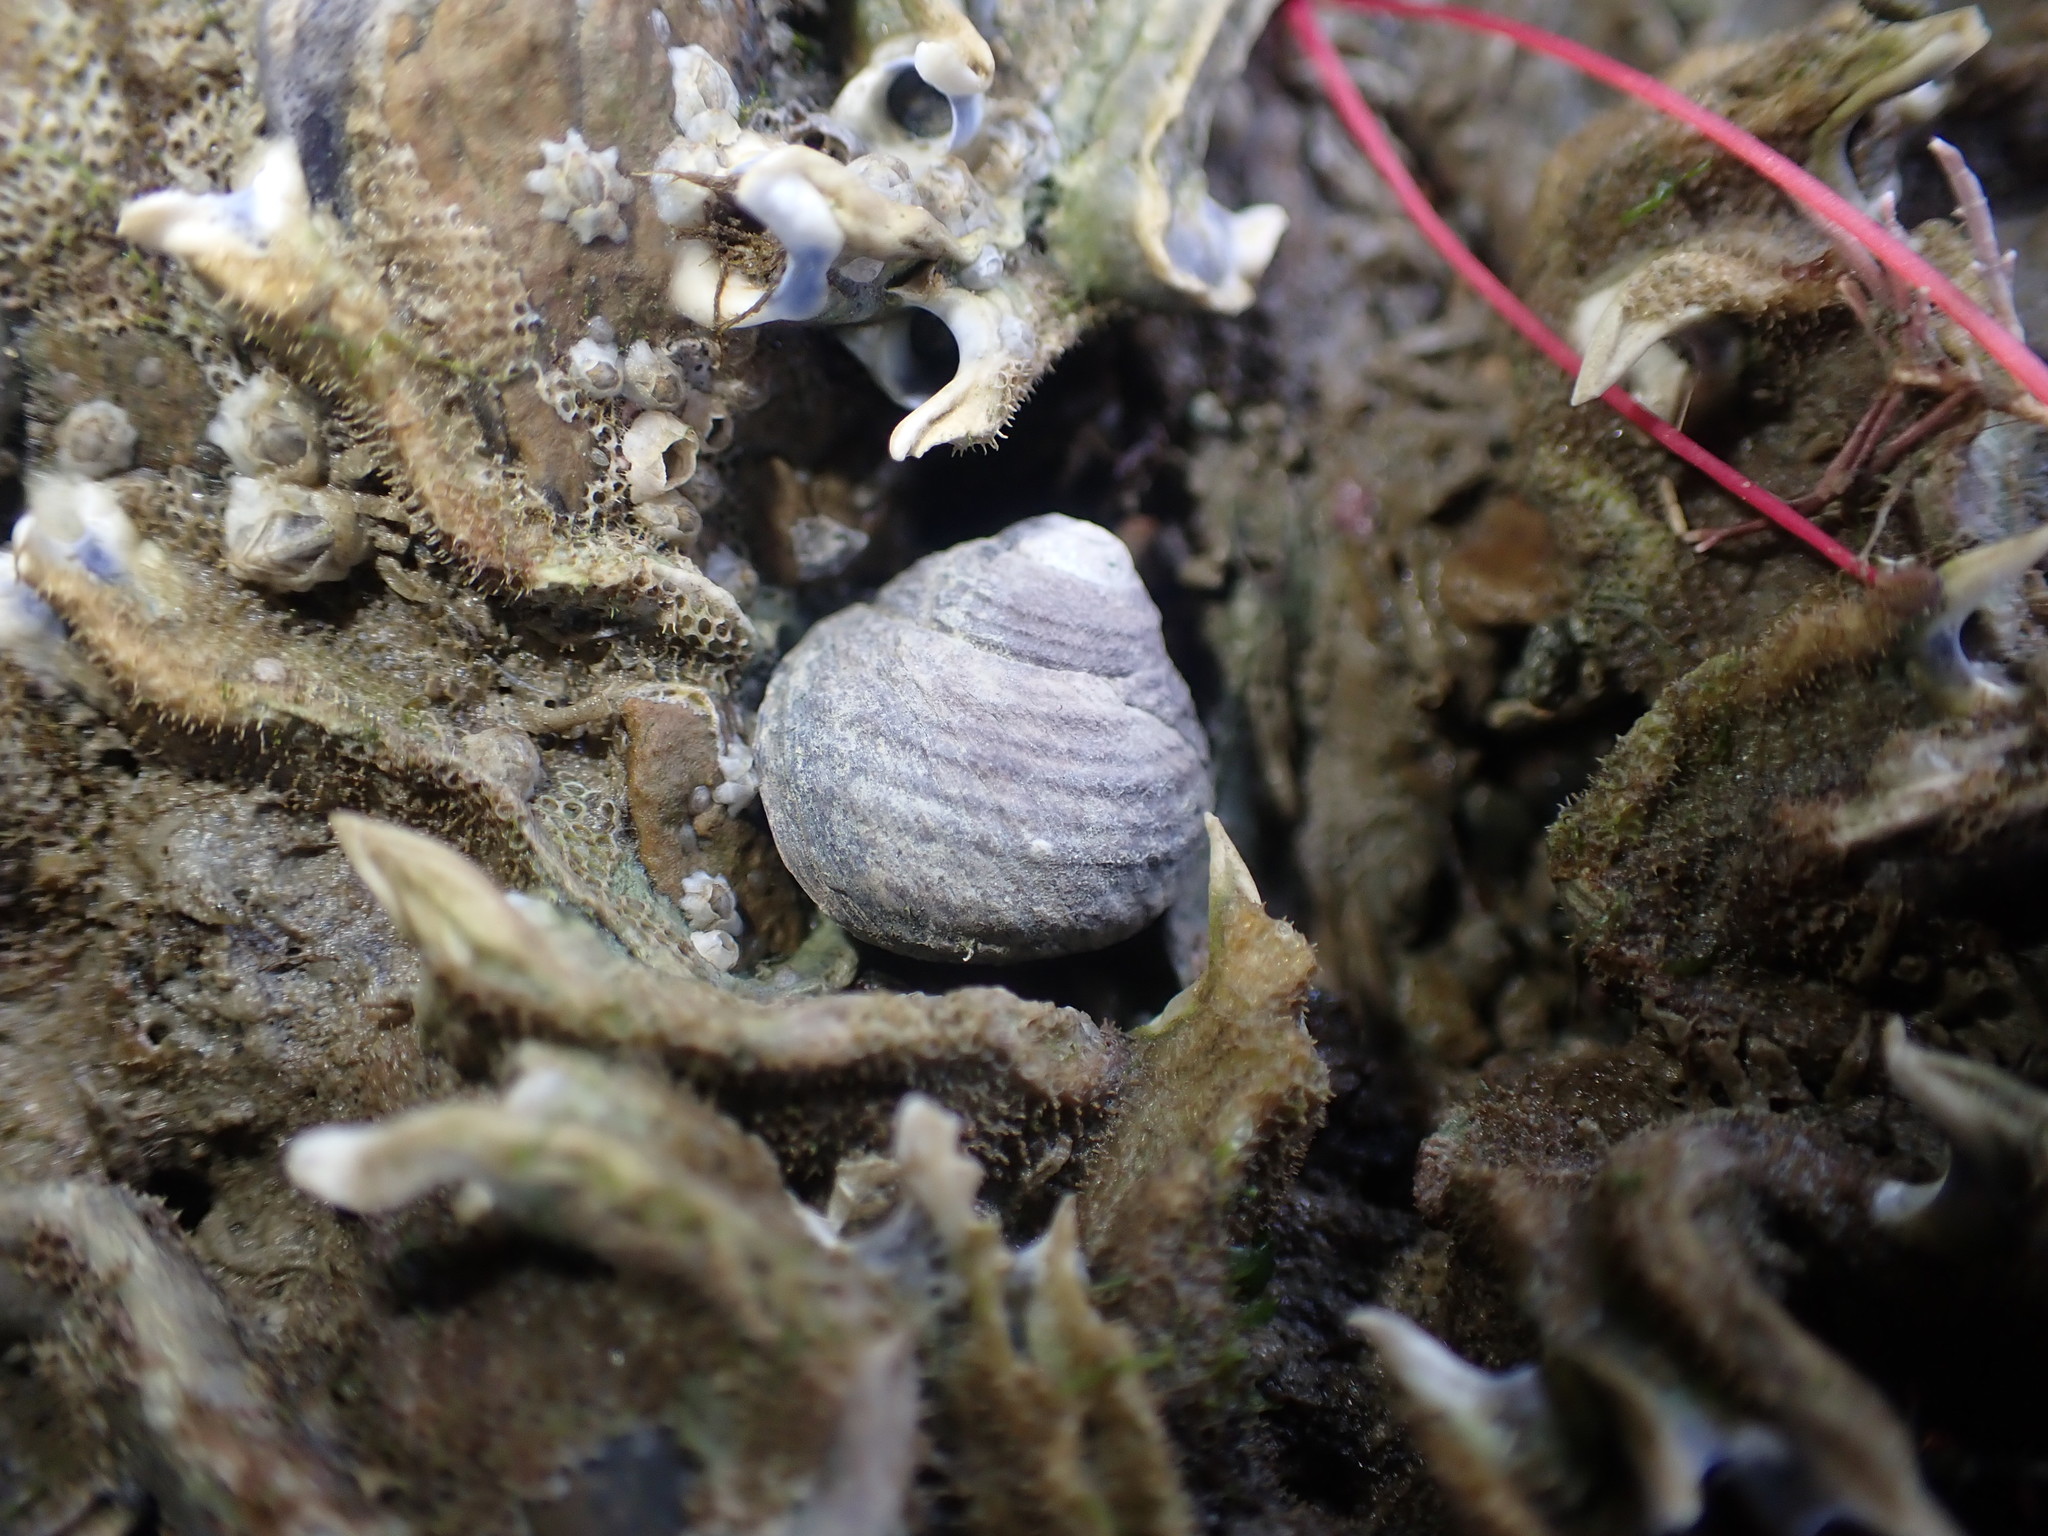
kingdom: Animalia
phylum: Mollusca
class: Gastropoda
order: Trochida
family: Trochidae
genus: Diloma
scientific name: Diloma subrostratum
